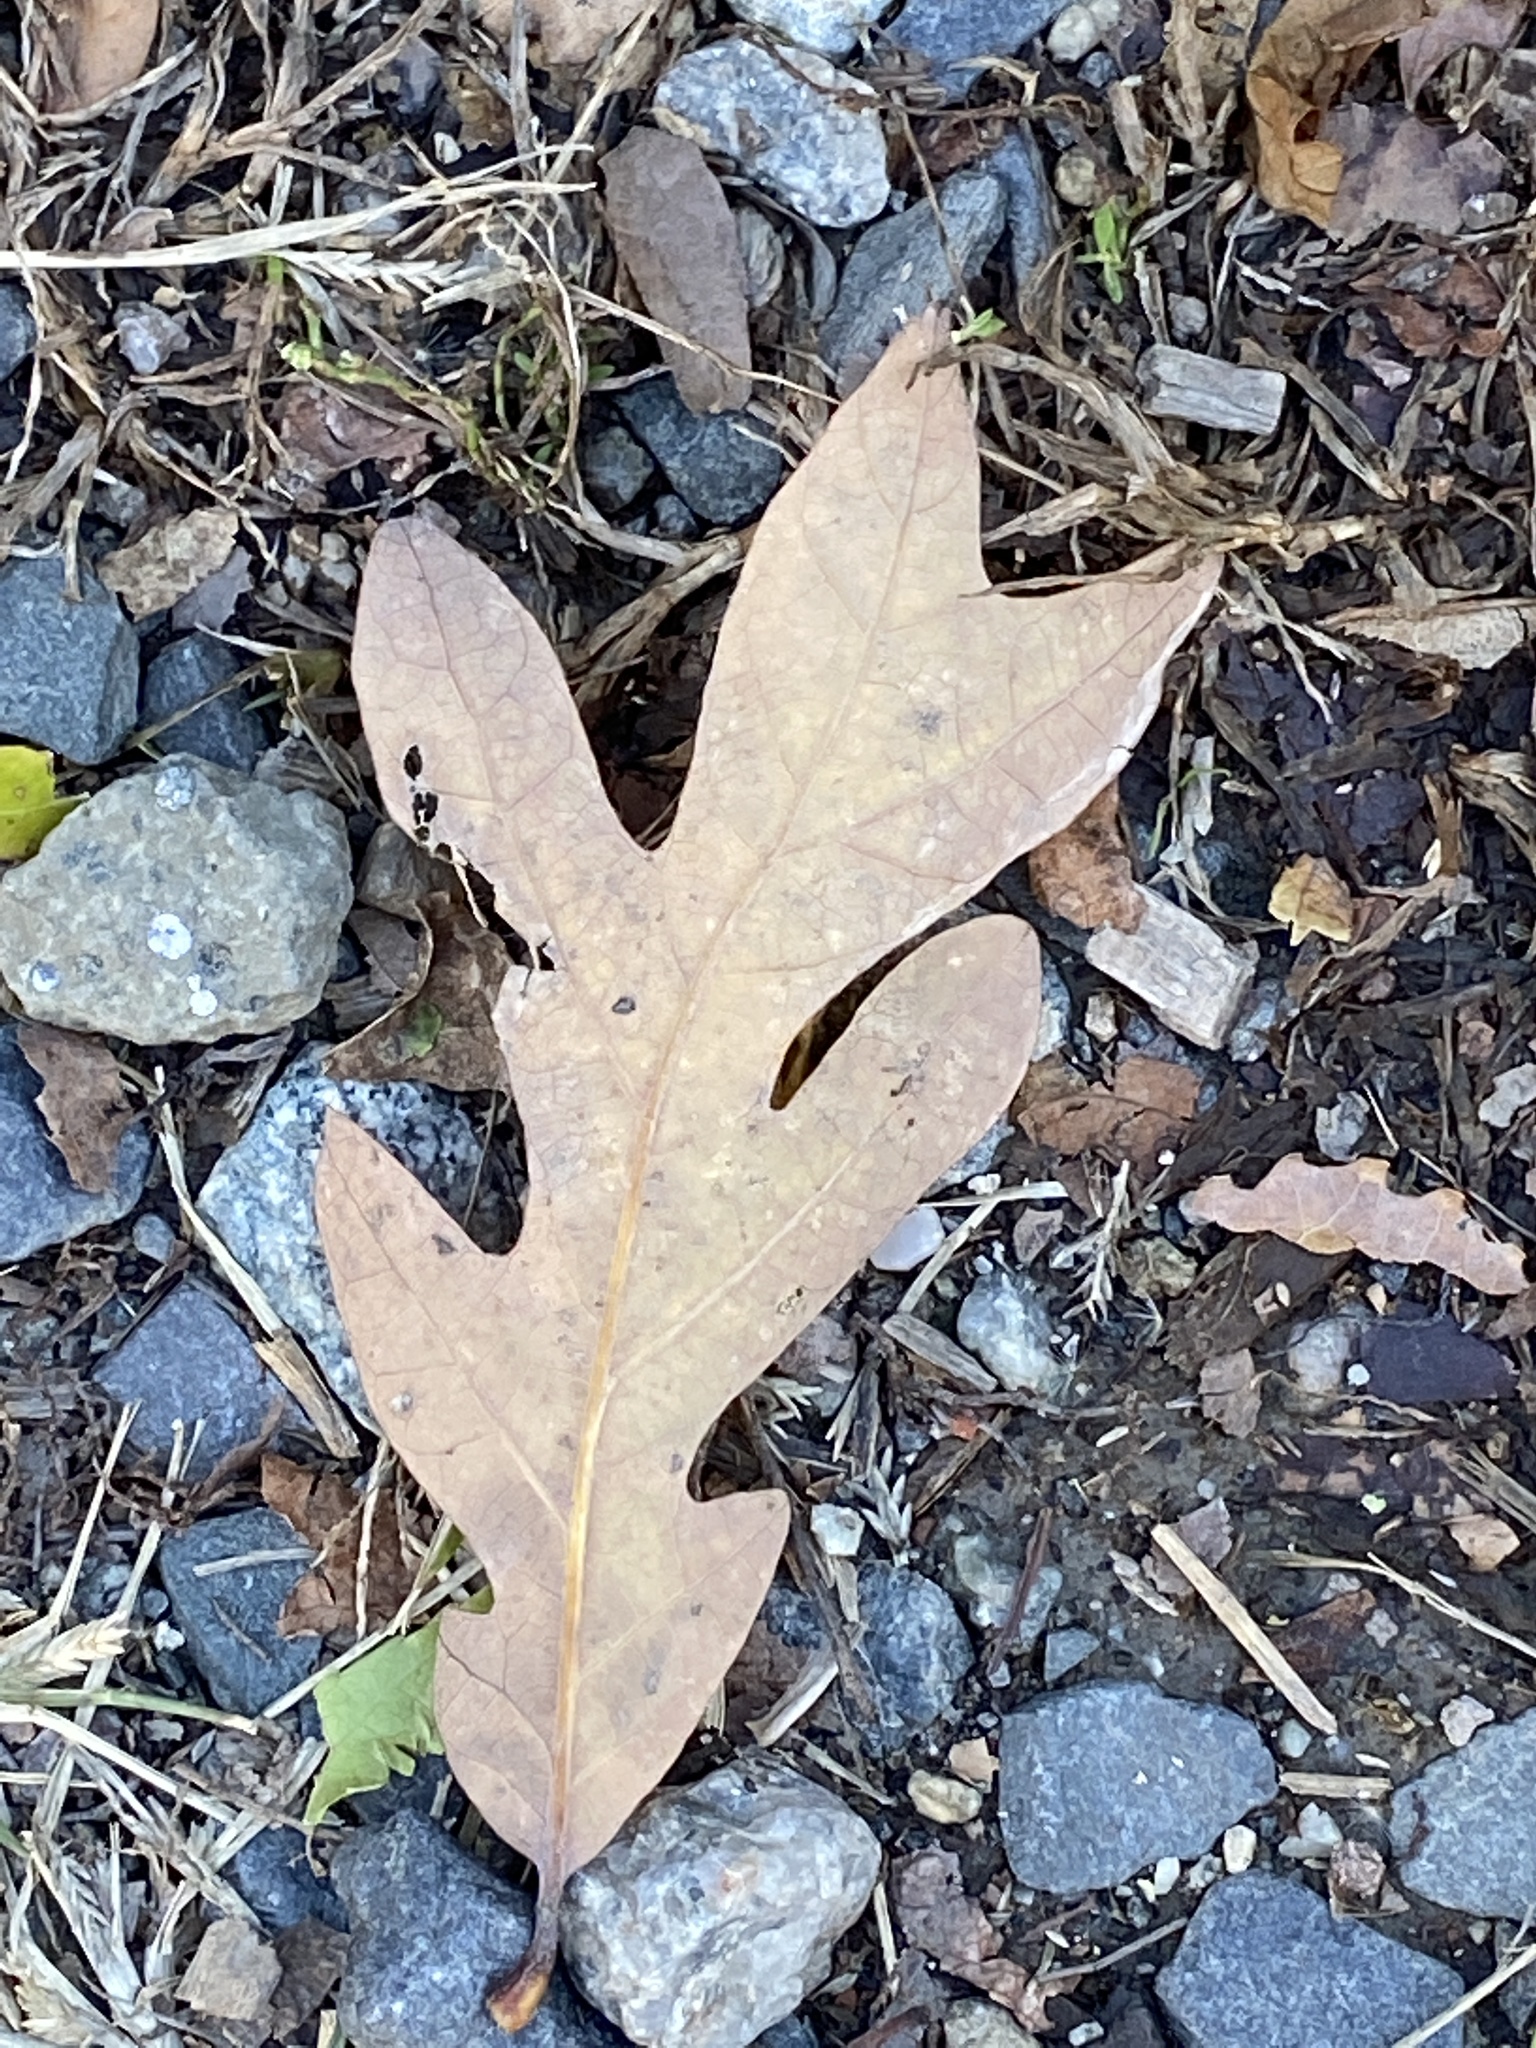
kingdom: Plantae
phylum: Tracheophyta
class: Magnoliopsida
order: Fagales
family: Fagaceae
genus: Quercus
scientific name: Quercus alba
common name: White oak
